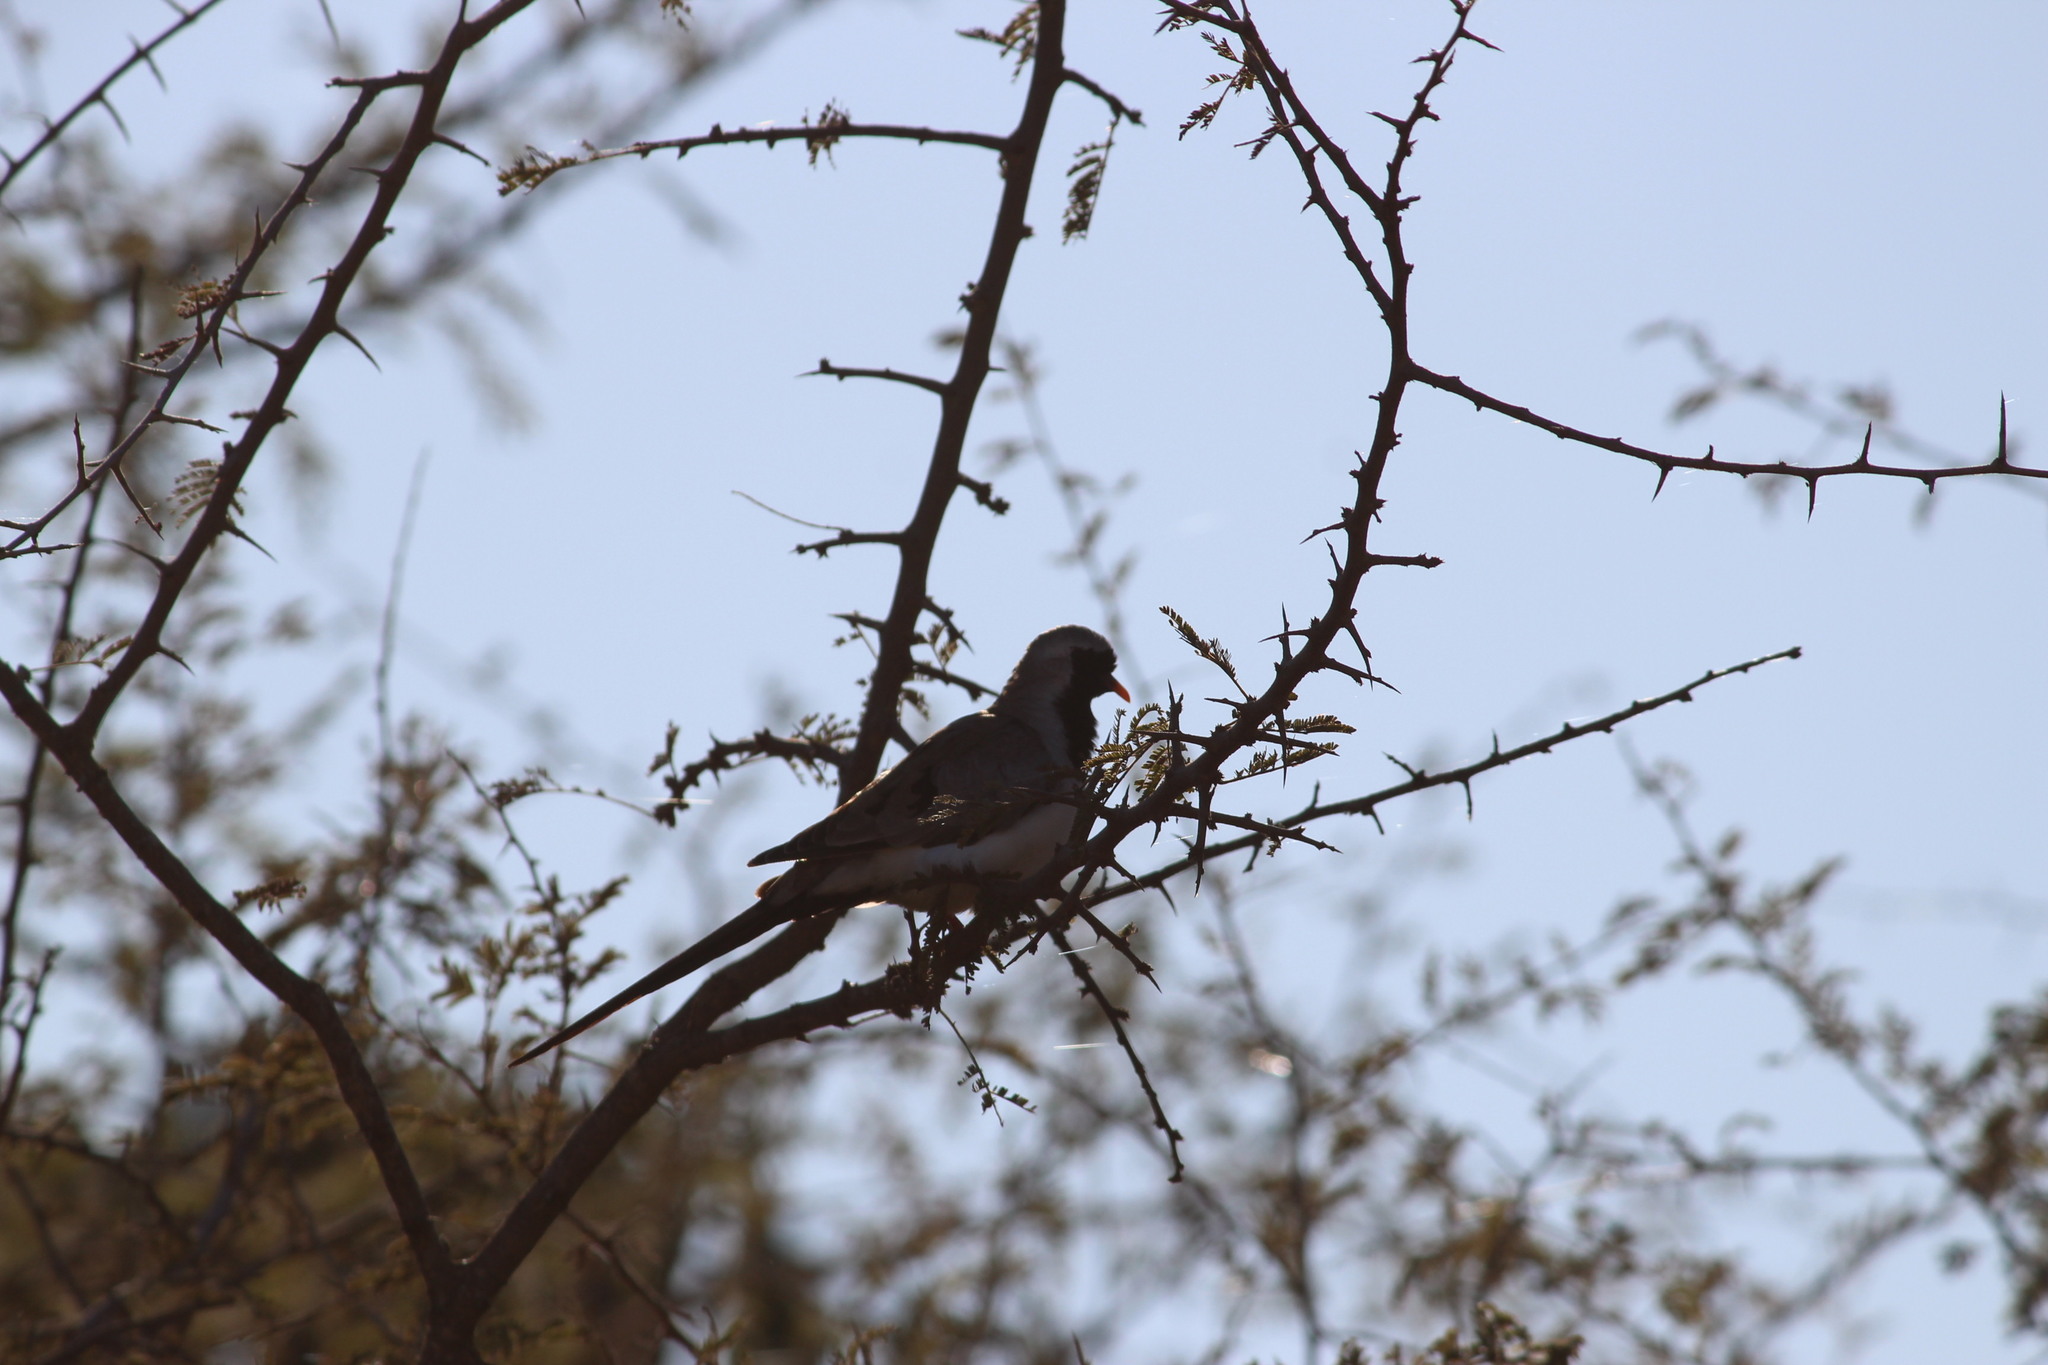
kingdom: Animalia
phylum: Chordata
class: Aves
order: Columbiformes
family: Columbidae
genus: Oena
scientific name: Oena capensis
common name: Namaqua dove
